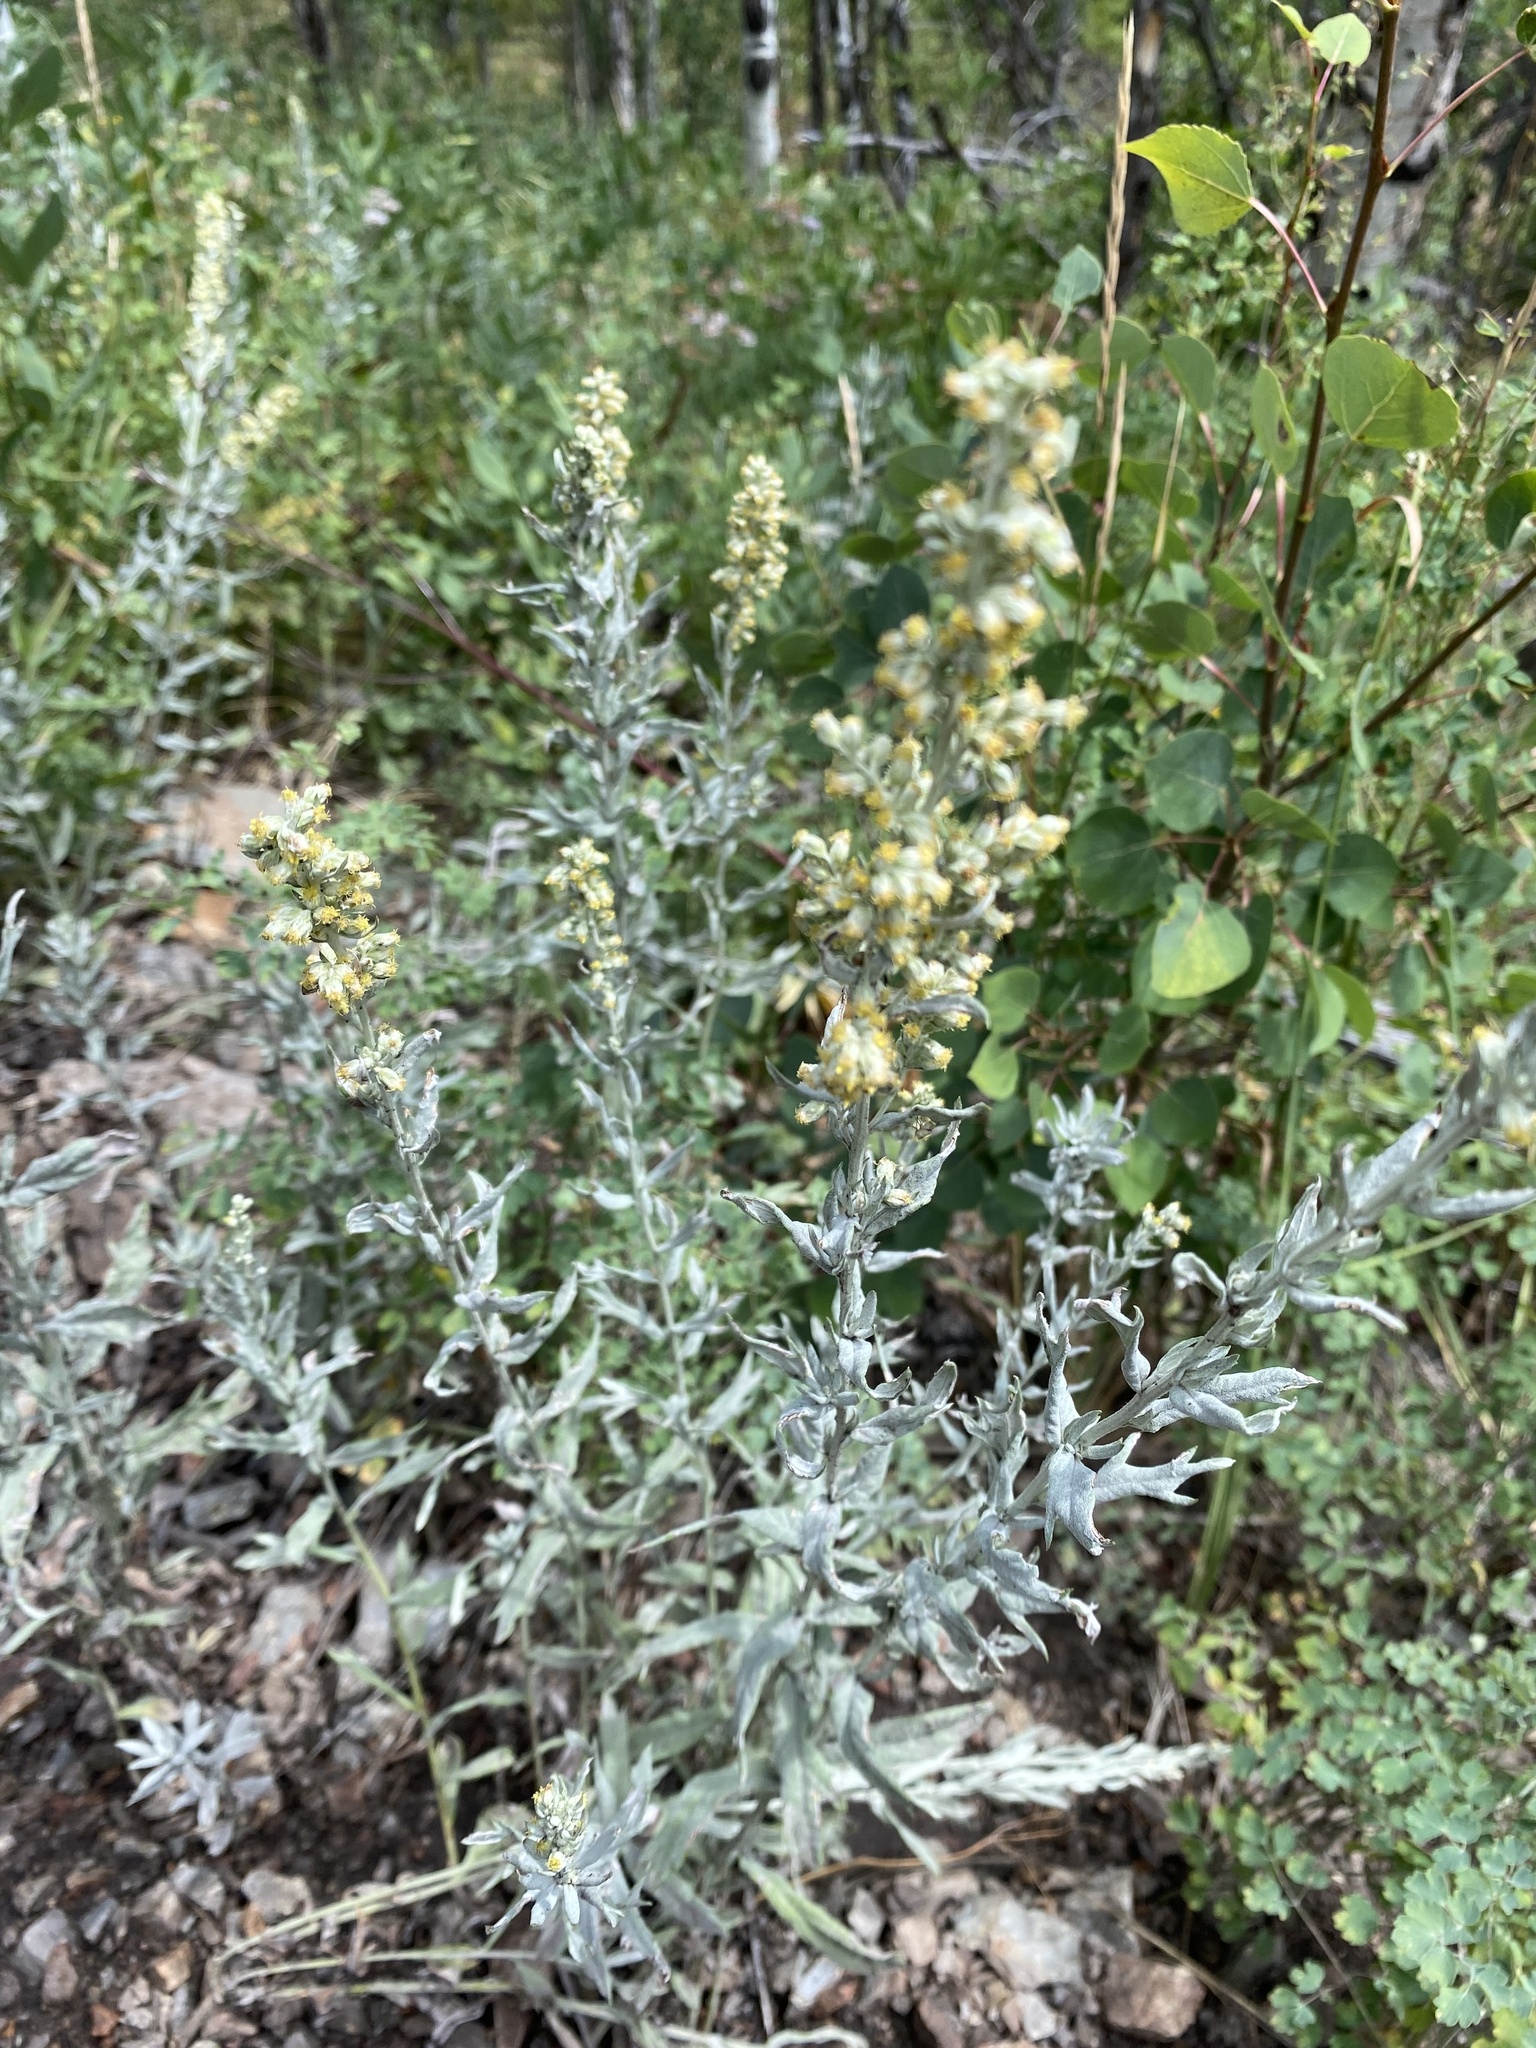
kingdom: Plantae
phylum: Tracheophyta
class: Magnoliopsida
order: Asterales
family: Asteraceae
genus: Artemisia
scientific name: Artemisia ludoviciana
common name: Western mugwort
